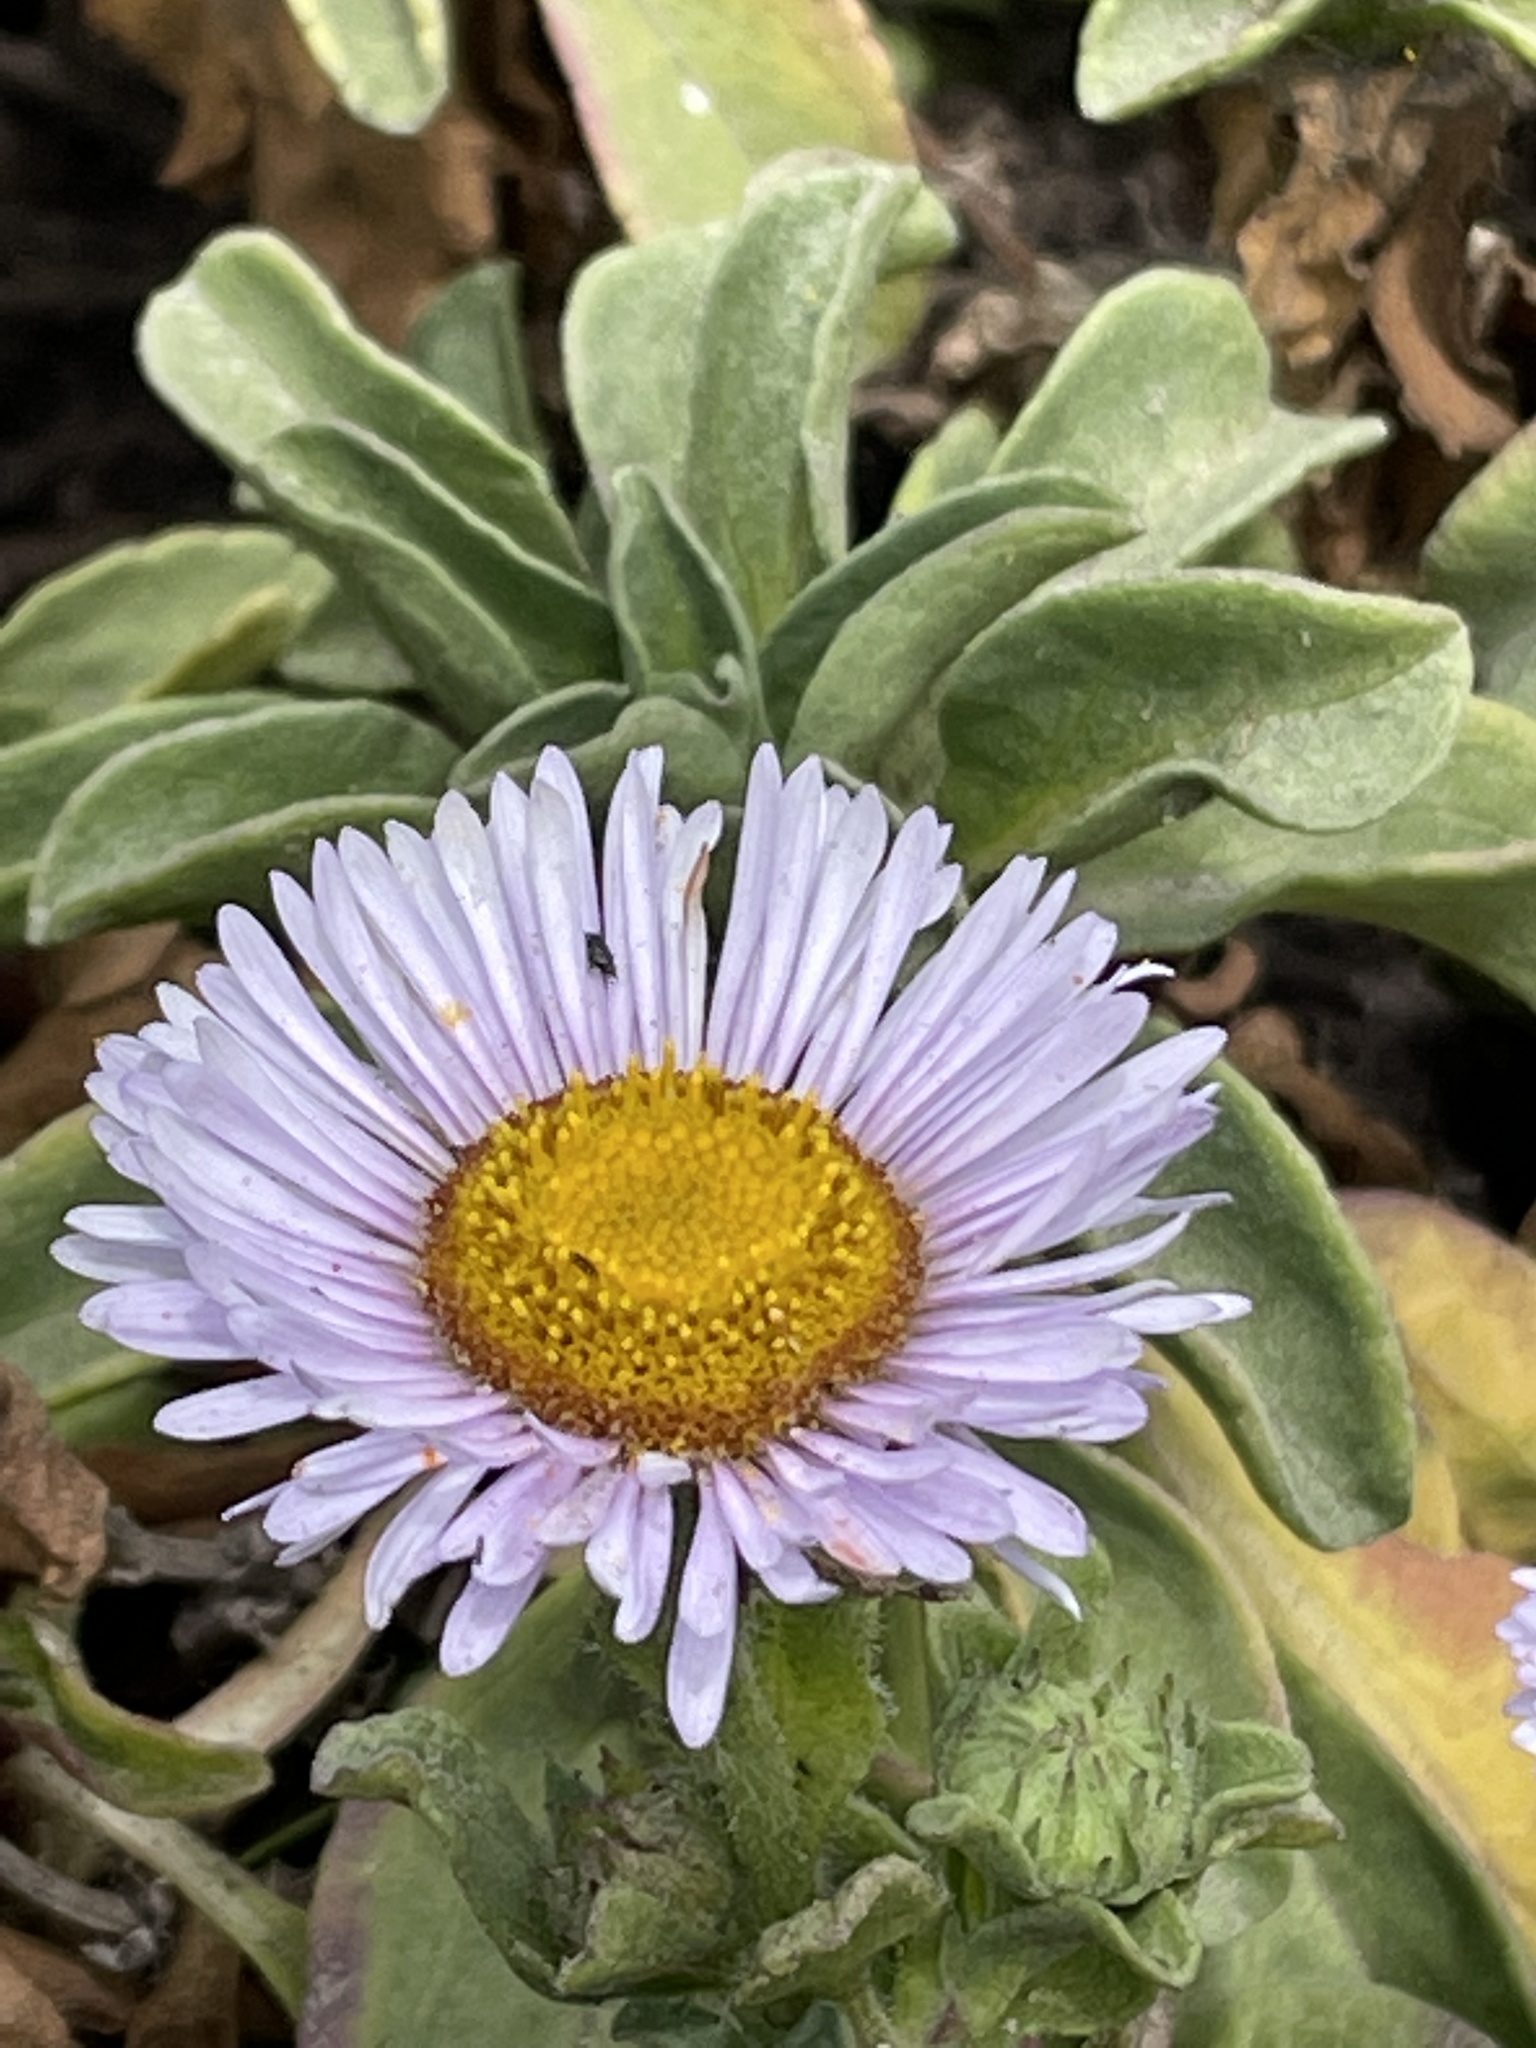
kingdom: Plantae
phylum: Tracheophyta
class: Magnoliopsida
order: Asterales
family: Asteraceae
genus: Erigeron
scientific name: Erigeron glaucus
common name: Seaside daisy
